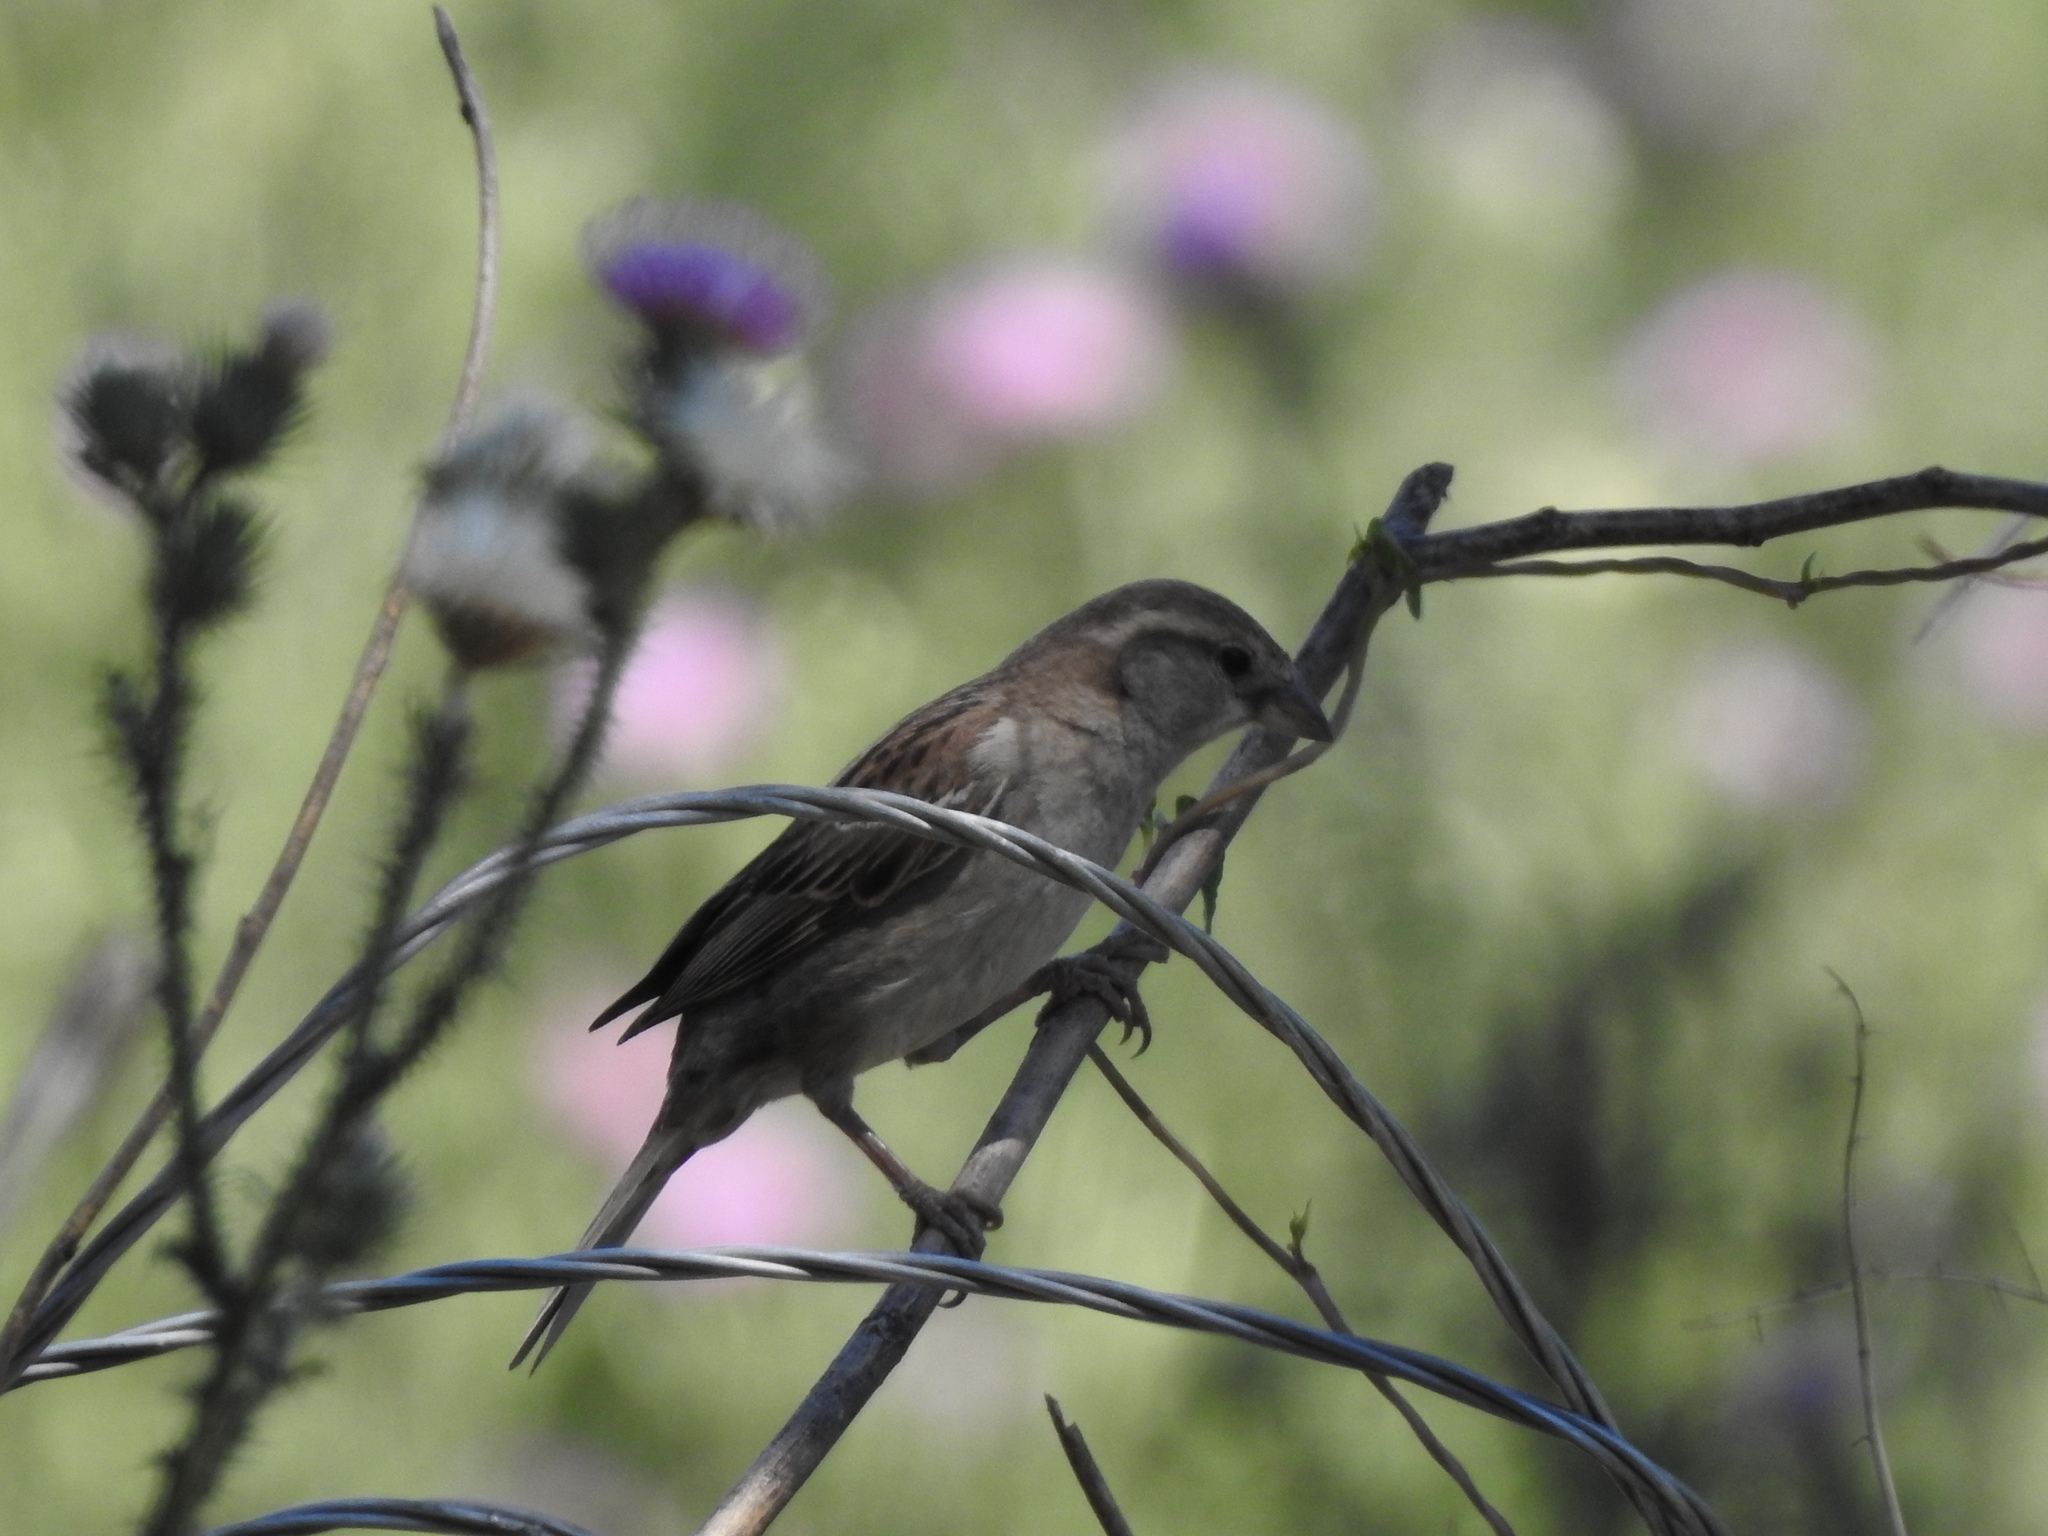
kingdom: Animalia
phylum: Chordata
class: Aves
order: Passeriformes
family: Passeridae
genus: Passer
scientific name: Passer domesticus
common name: House sparrow
